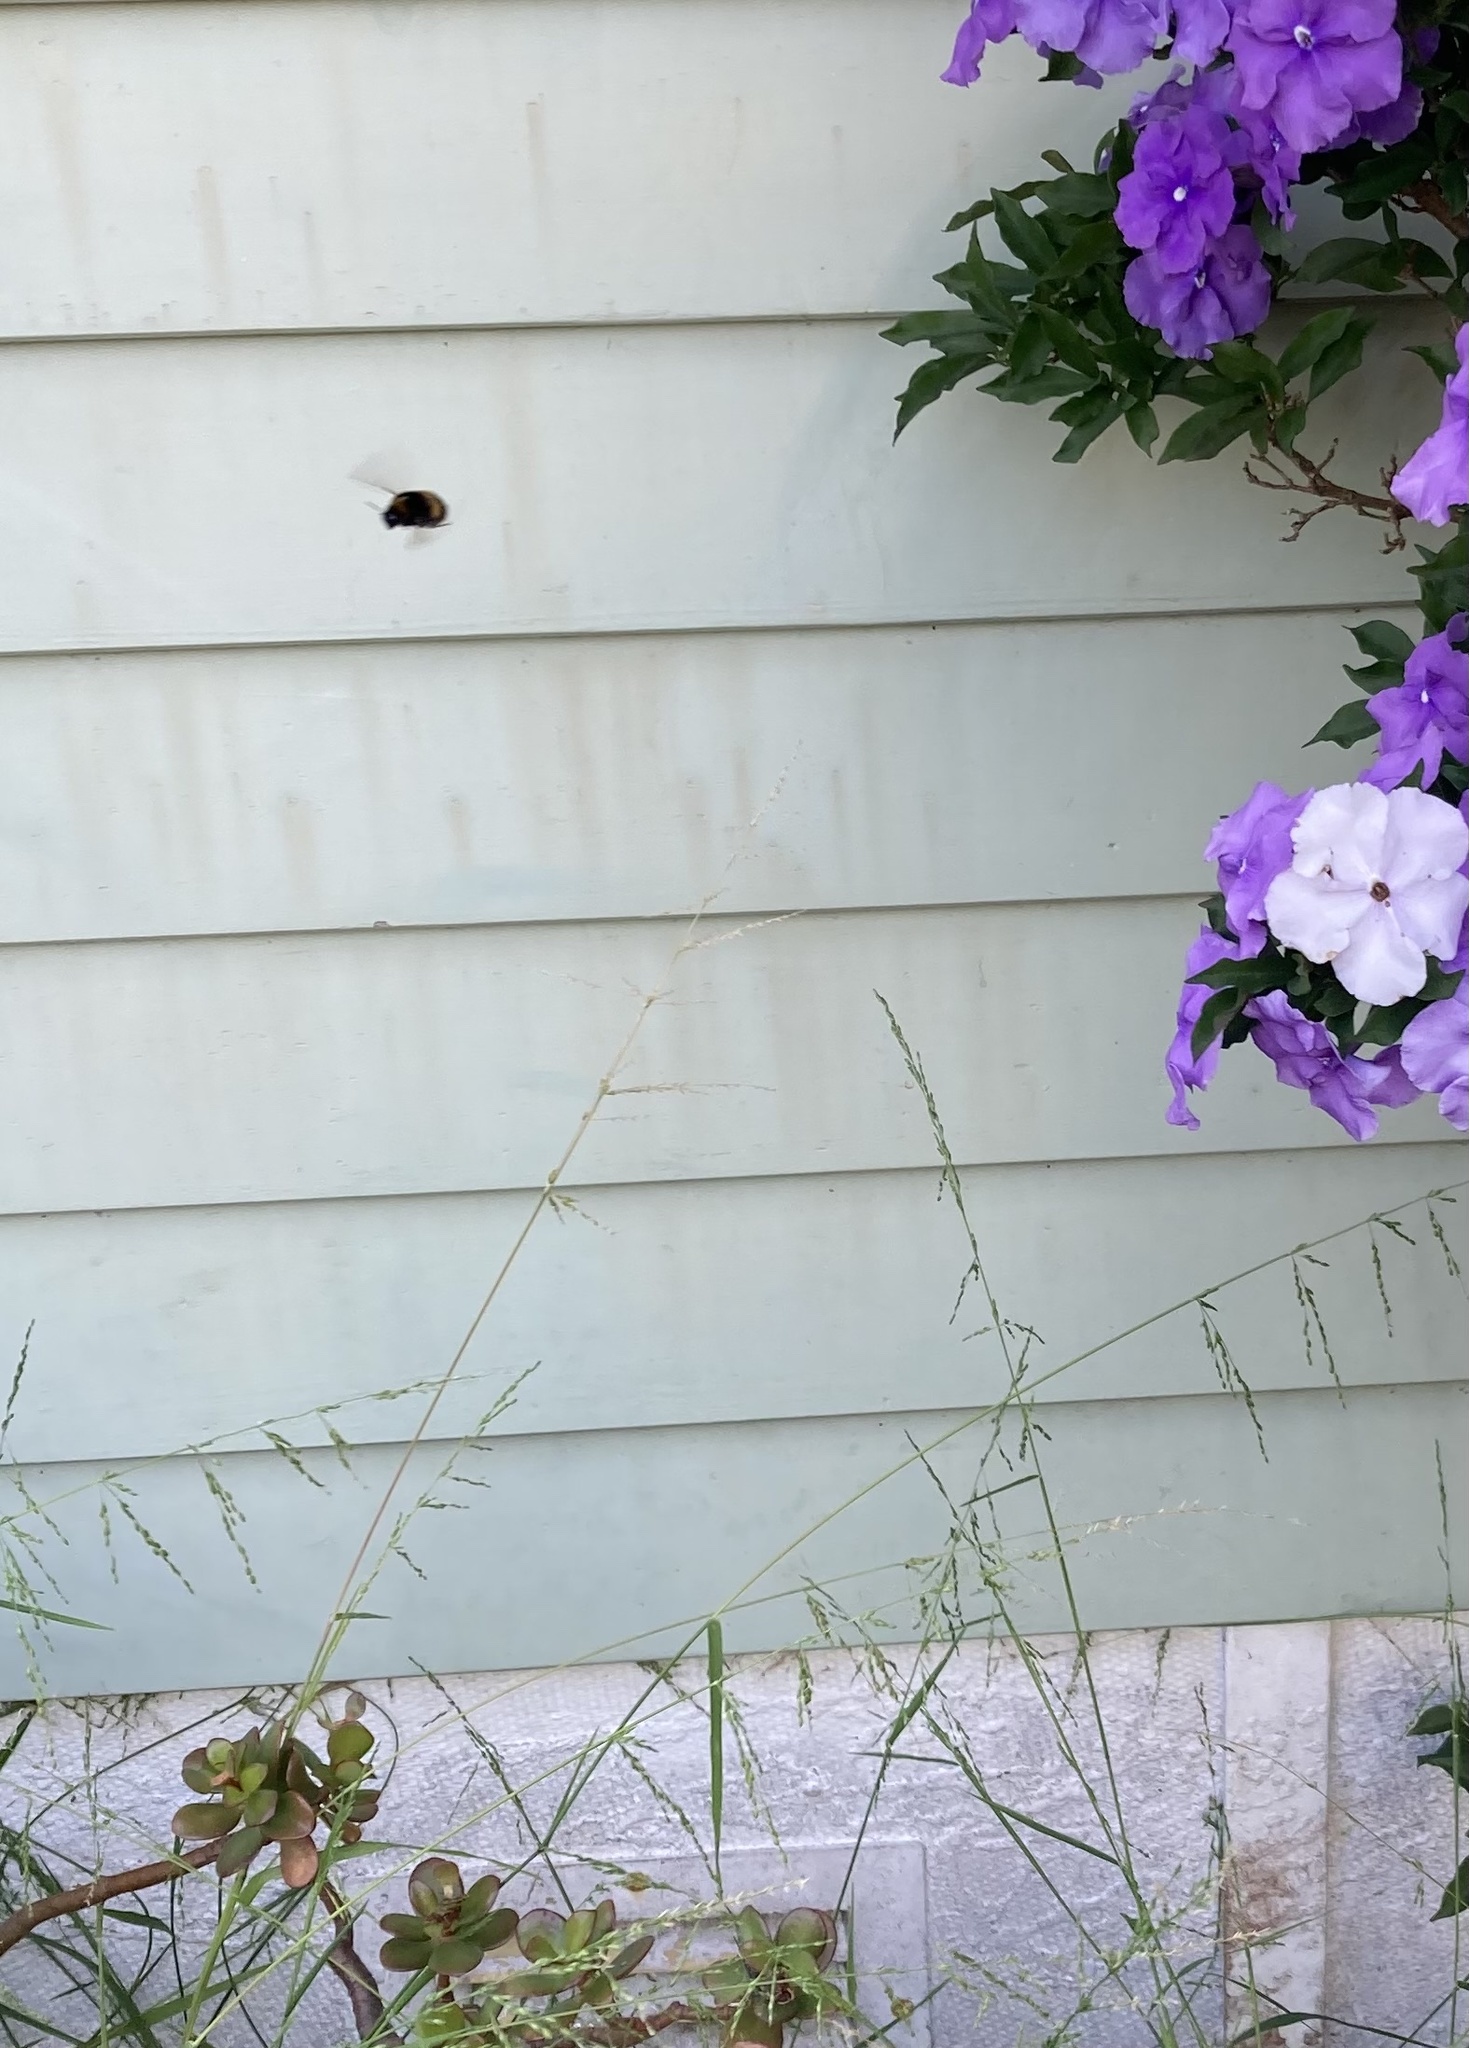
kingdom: Animalia
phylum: Arthropoda
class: Insecta
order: Hymenoptera
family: Apidae
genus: Bombus
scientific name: Bombus terrestris
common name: Buff-tailed bumblebee
